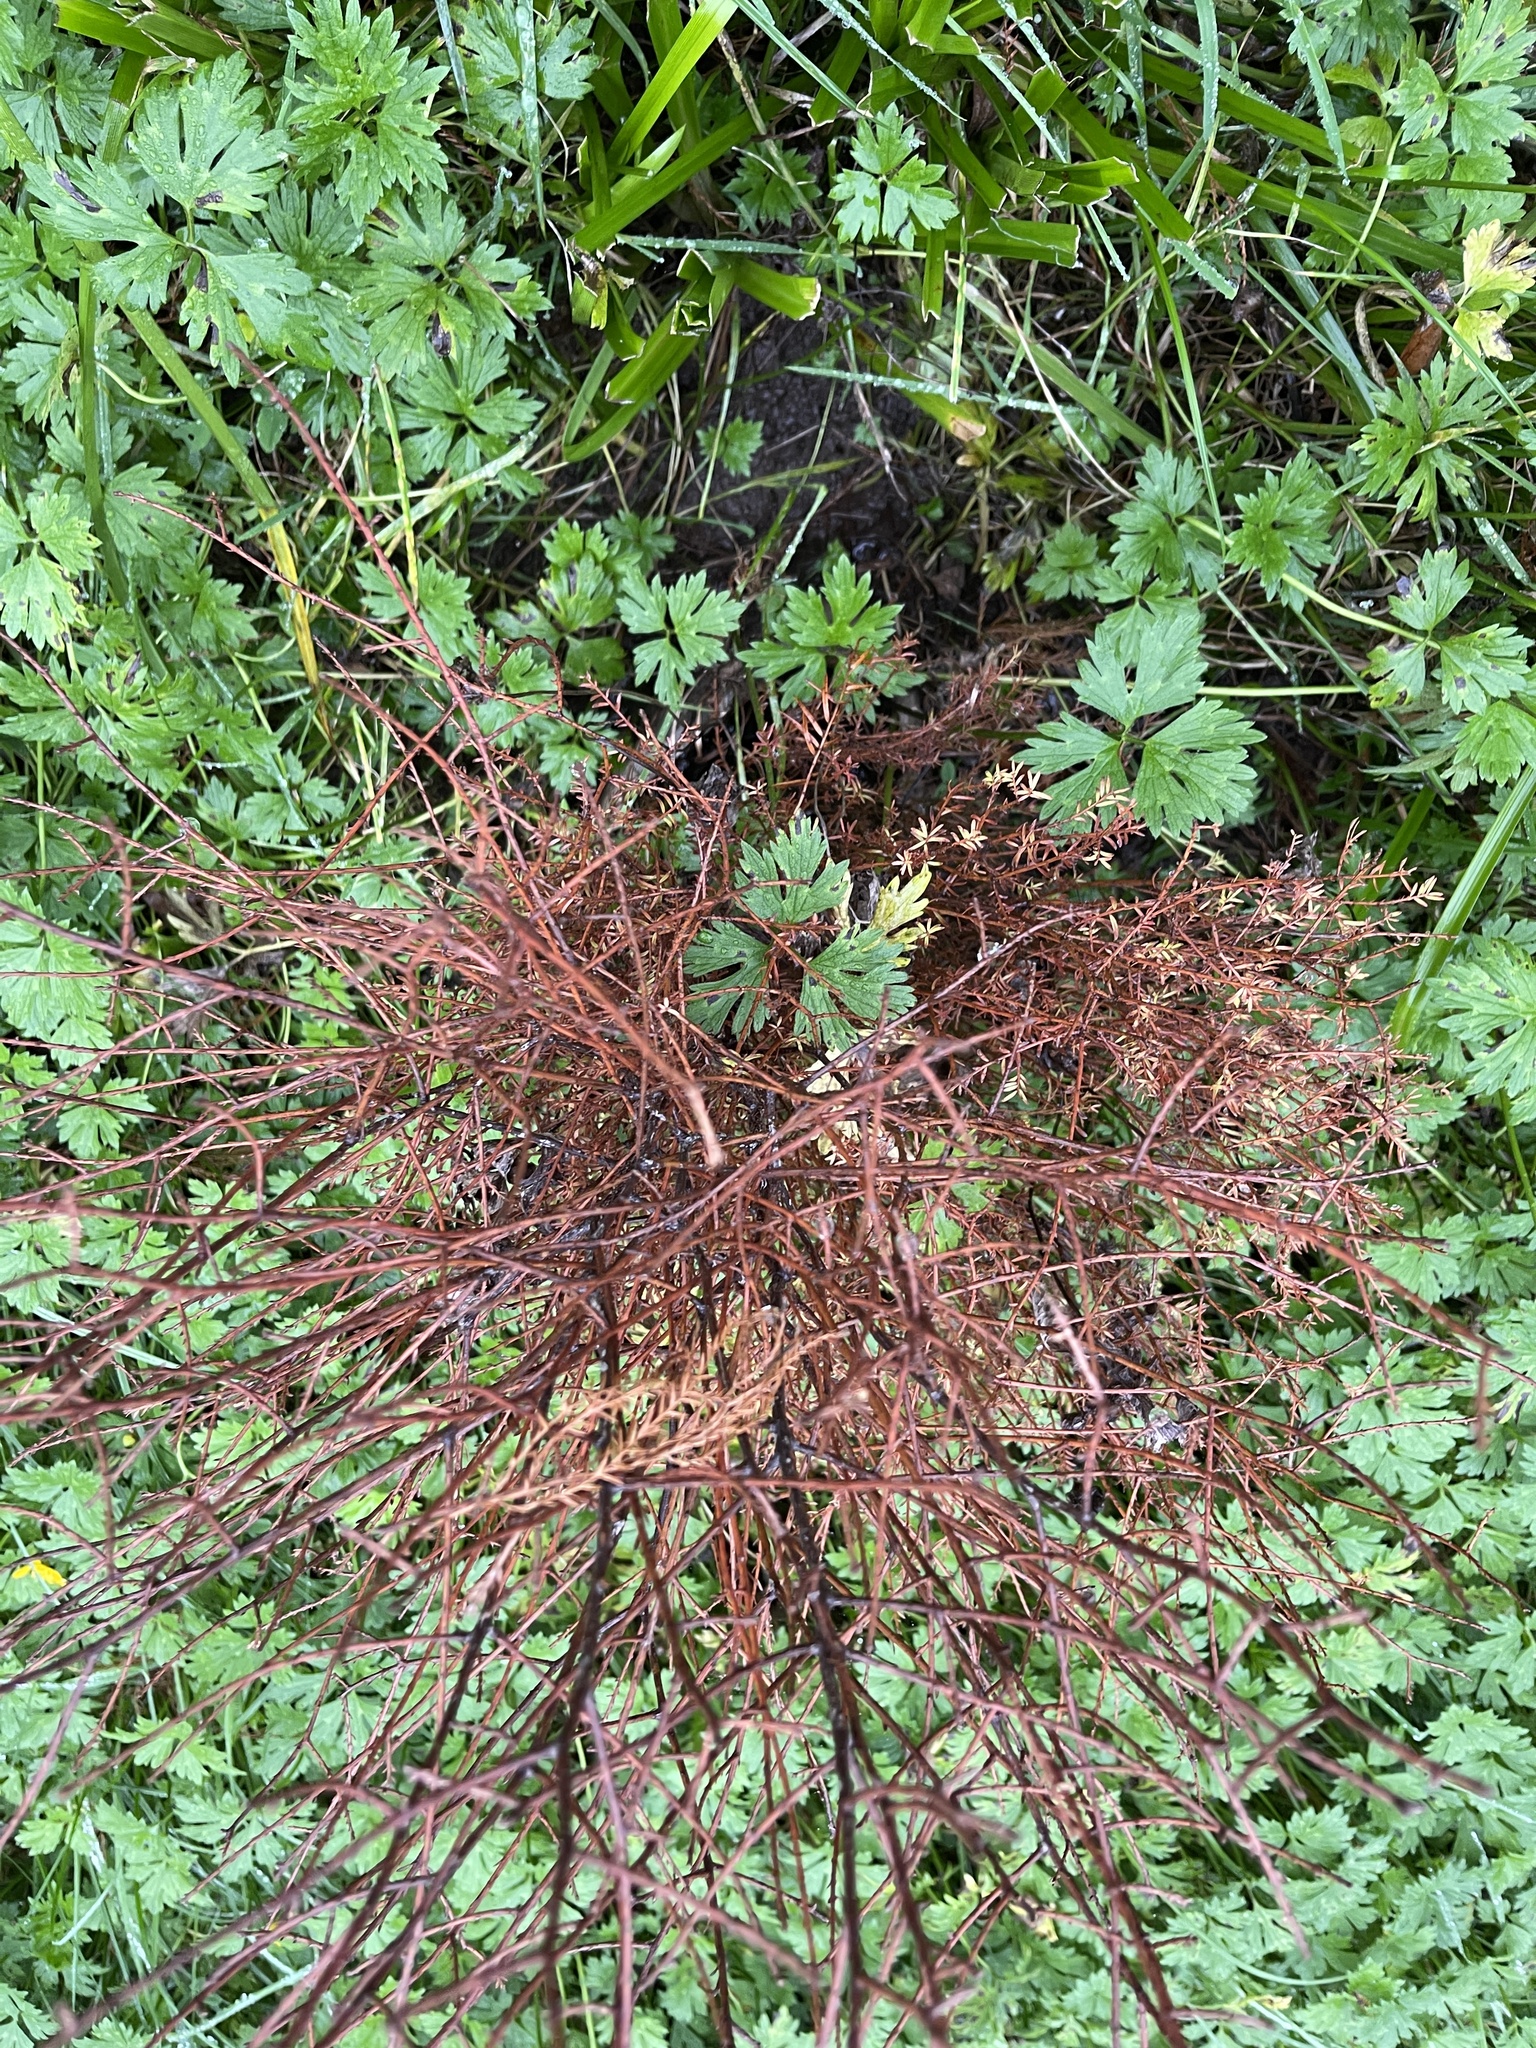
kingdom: Plantae
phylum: Tracheophyta
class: Pinopsida
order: Pinales
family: Podocarpaceae
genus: Prumnopitys
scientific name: Prumnopitys taxifolia
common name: Matai
